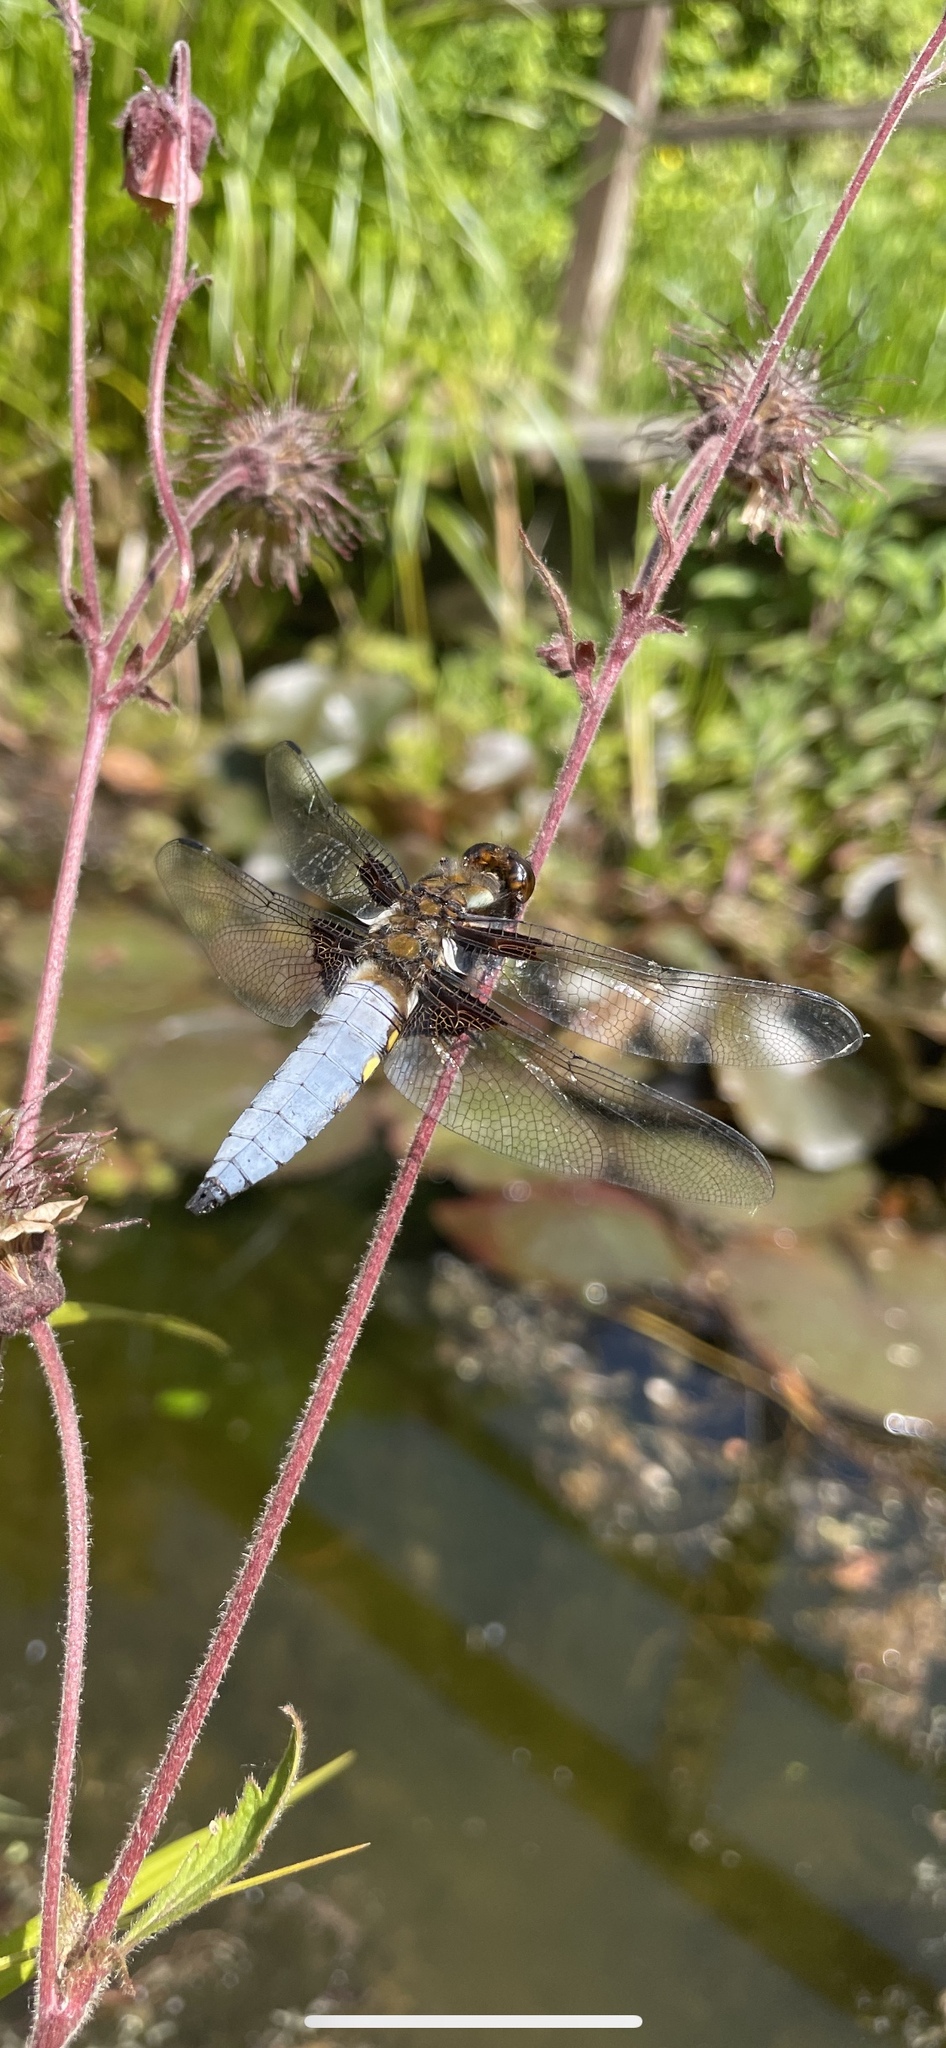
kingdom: Animalia
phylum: Arthropoda
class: Insecta
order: Odonata
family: Libellulidae
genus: Libellula
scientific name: Libellula depressa
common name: Broad-bodied chaser
